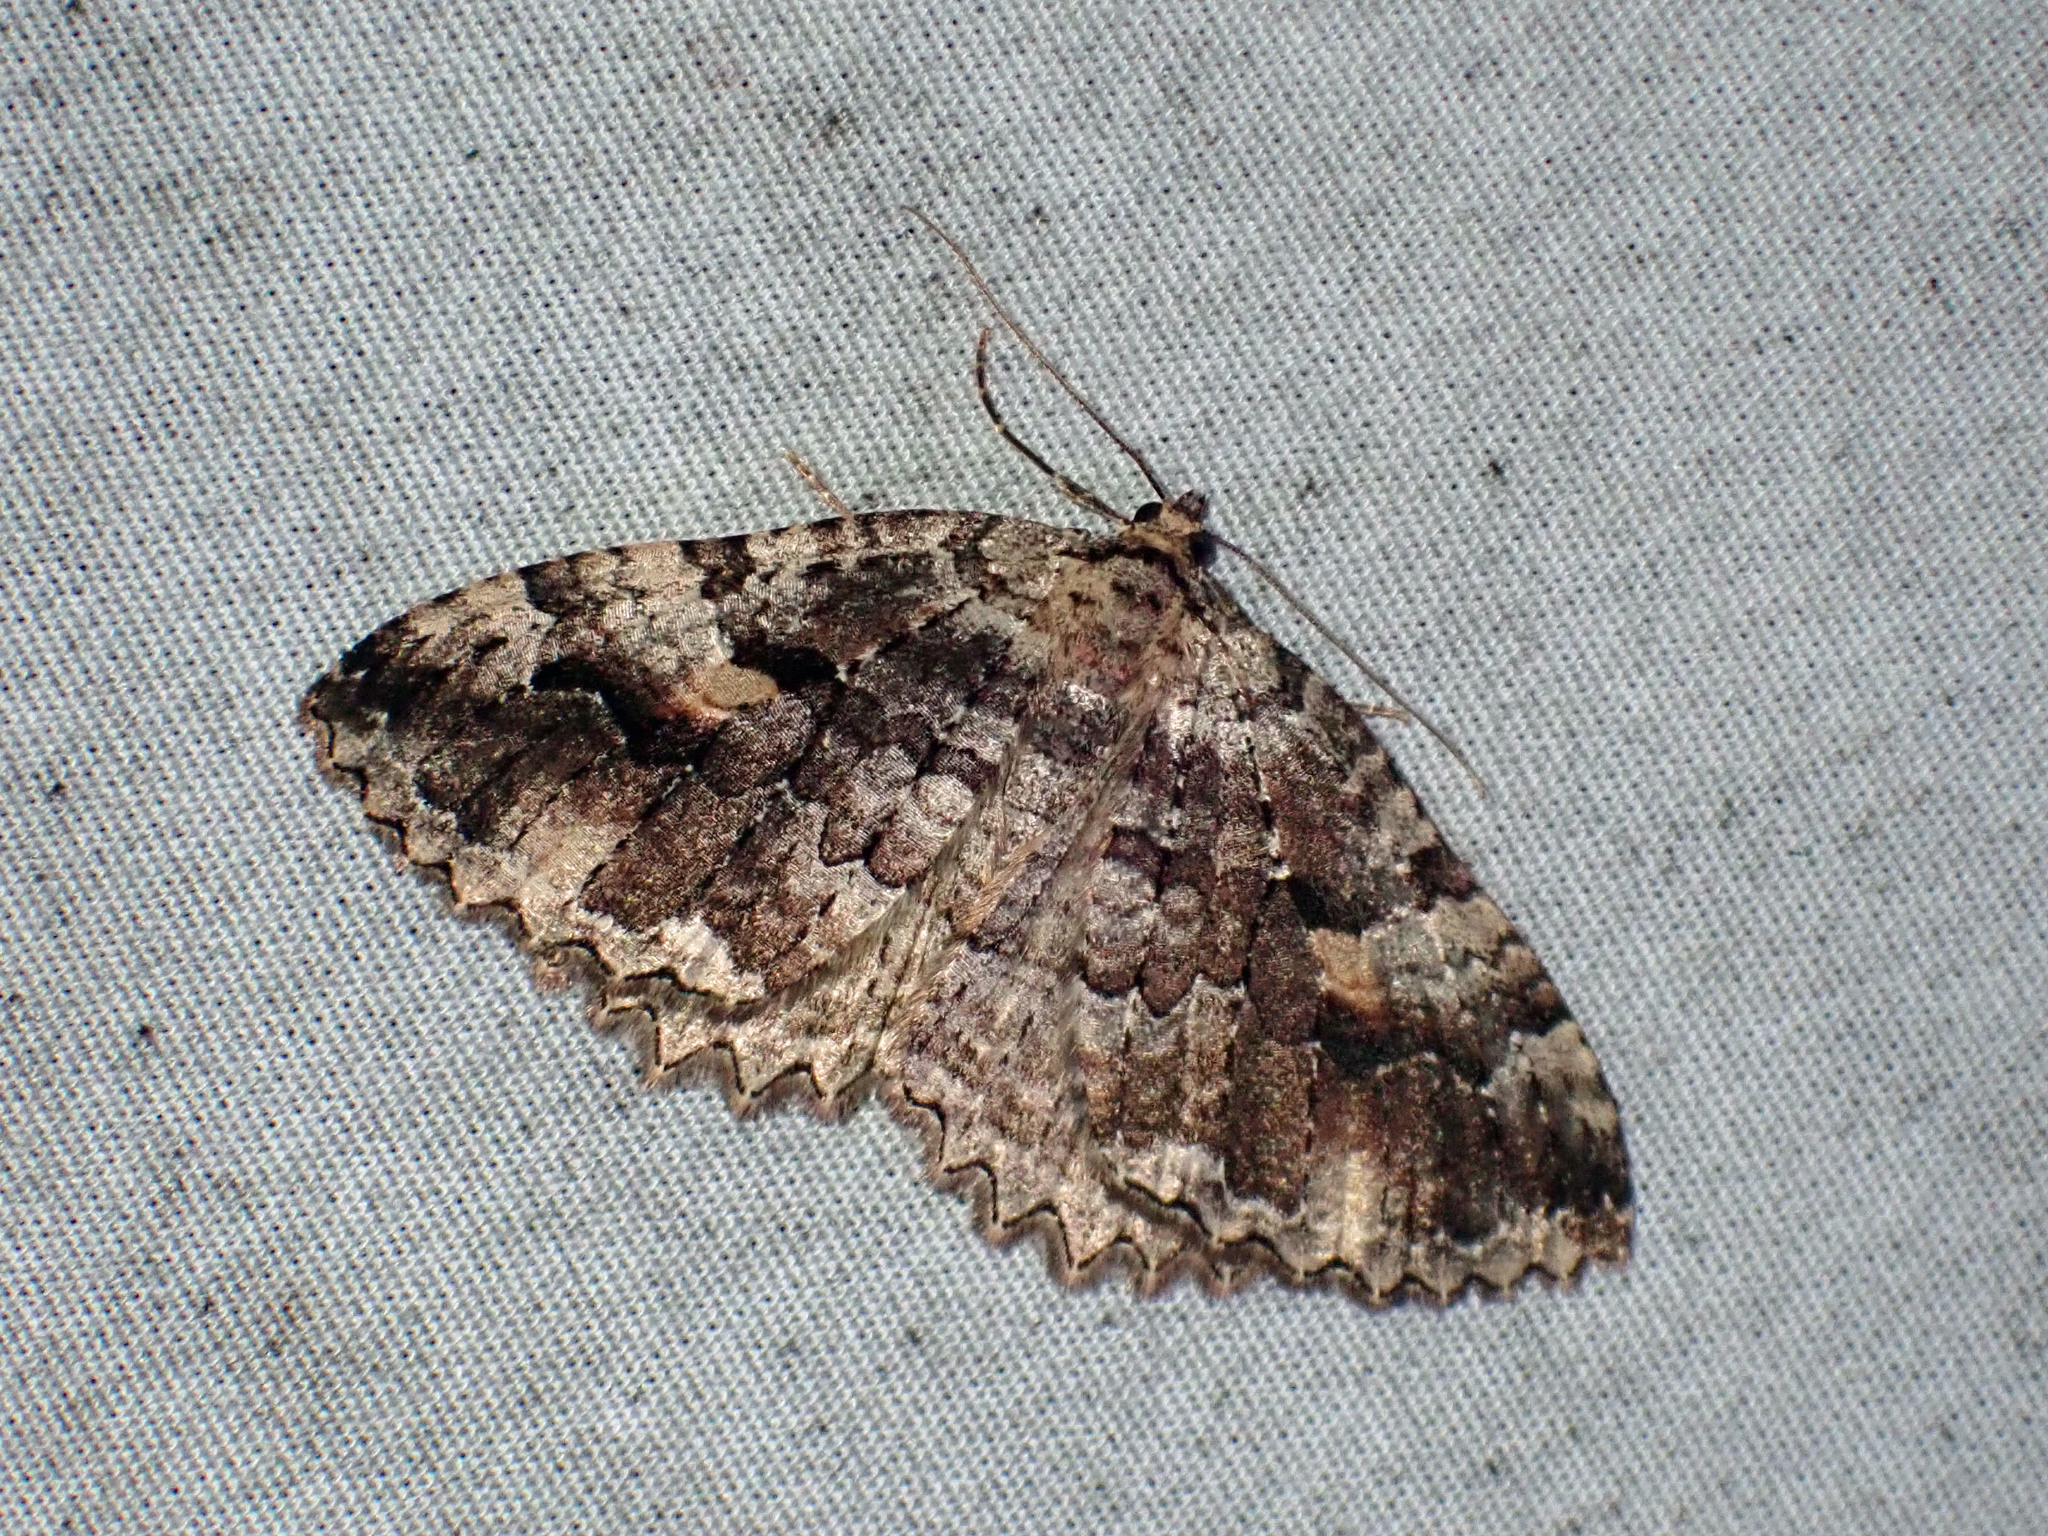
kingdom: Animalia
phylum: Arthropoda
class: Insecta
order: Lepidoptera
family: Geometridae
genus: Triphosa
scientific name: Triphosa haesitata
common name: Tissue moth
